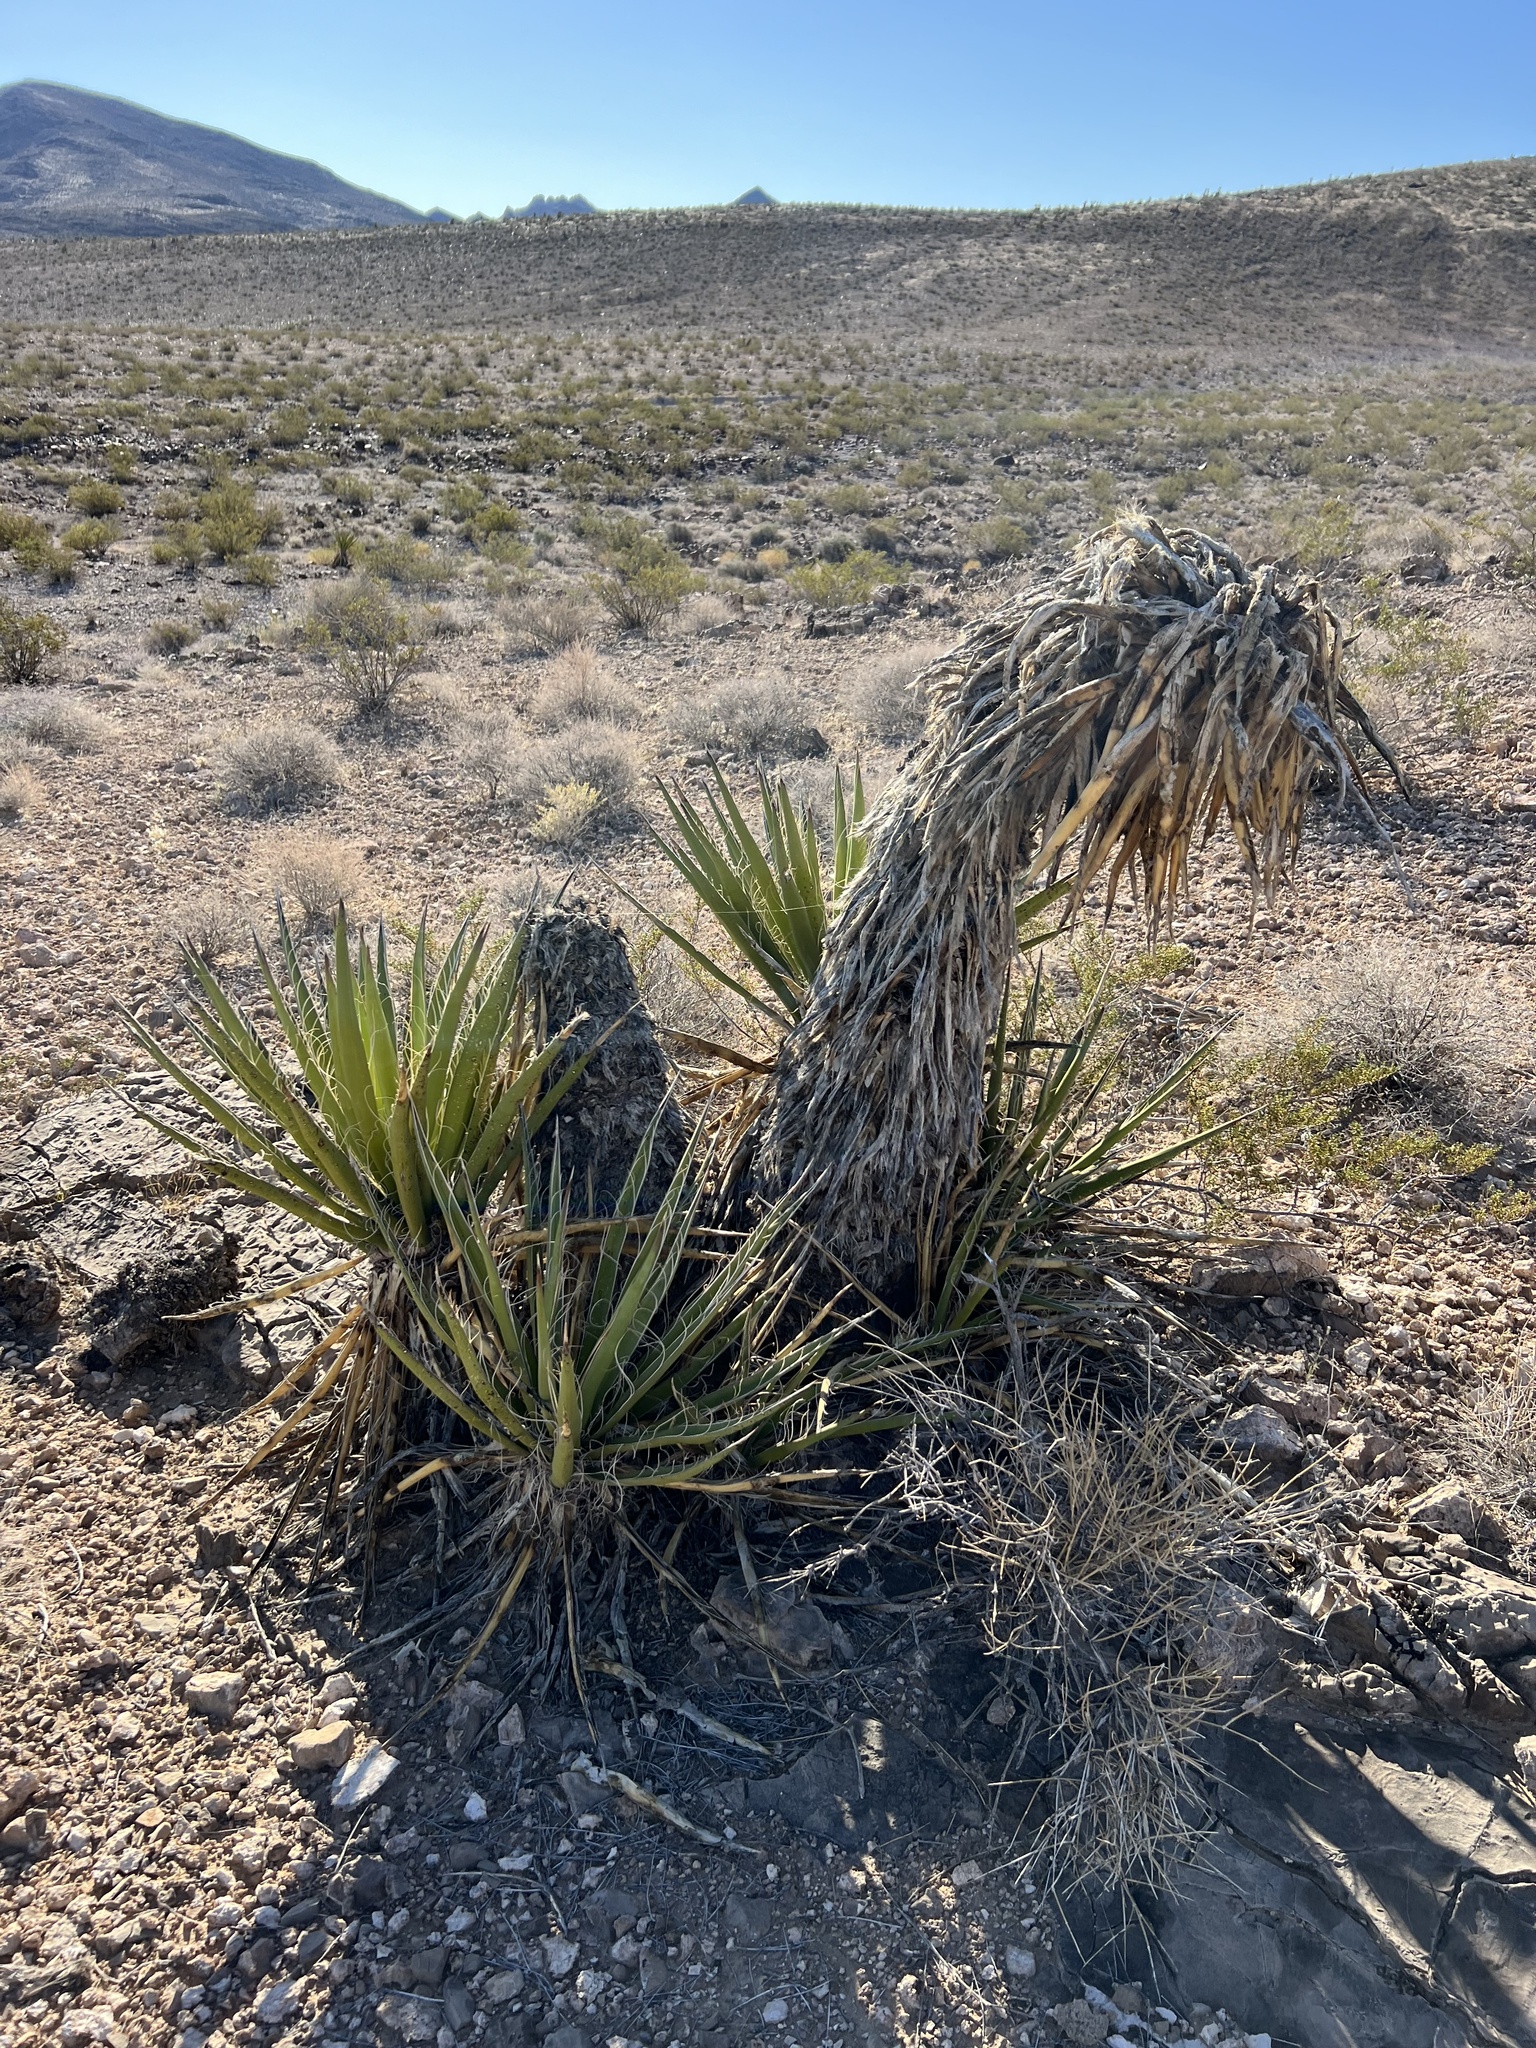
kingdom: Plantae
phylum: Tracheophyta
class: Liliopsida
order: Asparagales
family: Asparagaceae
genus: Yucca
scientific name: Yucca schidigera
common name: Mojave yucca
